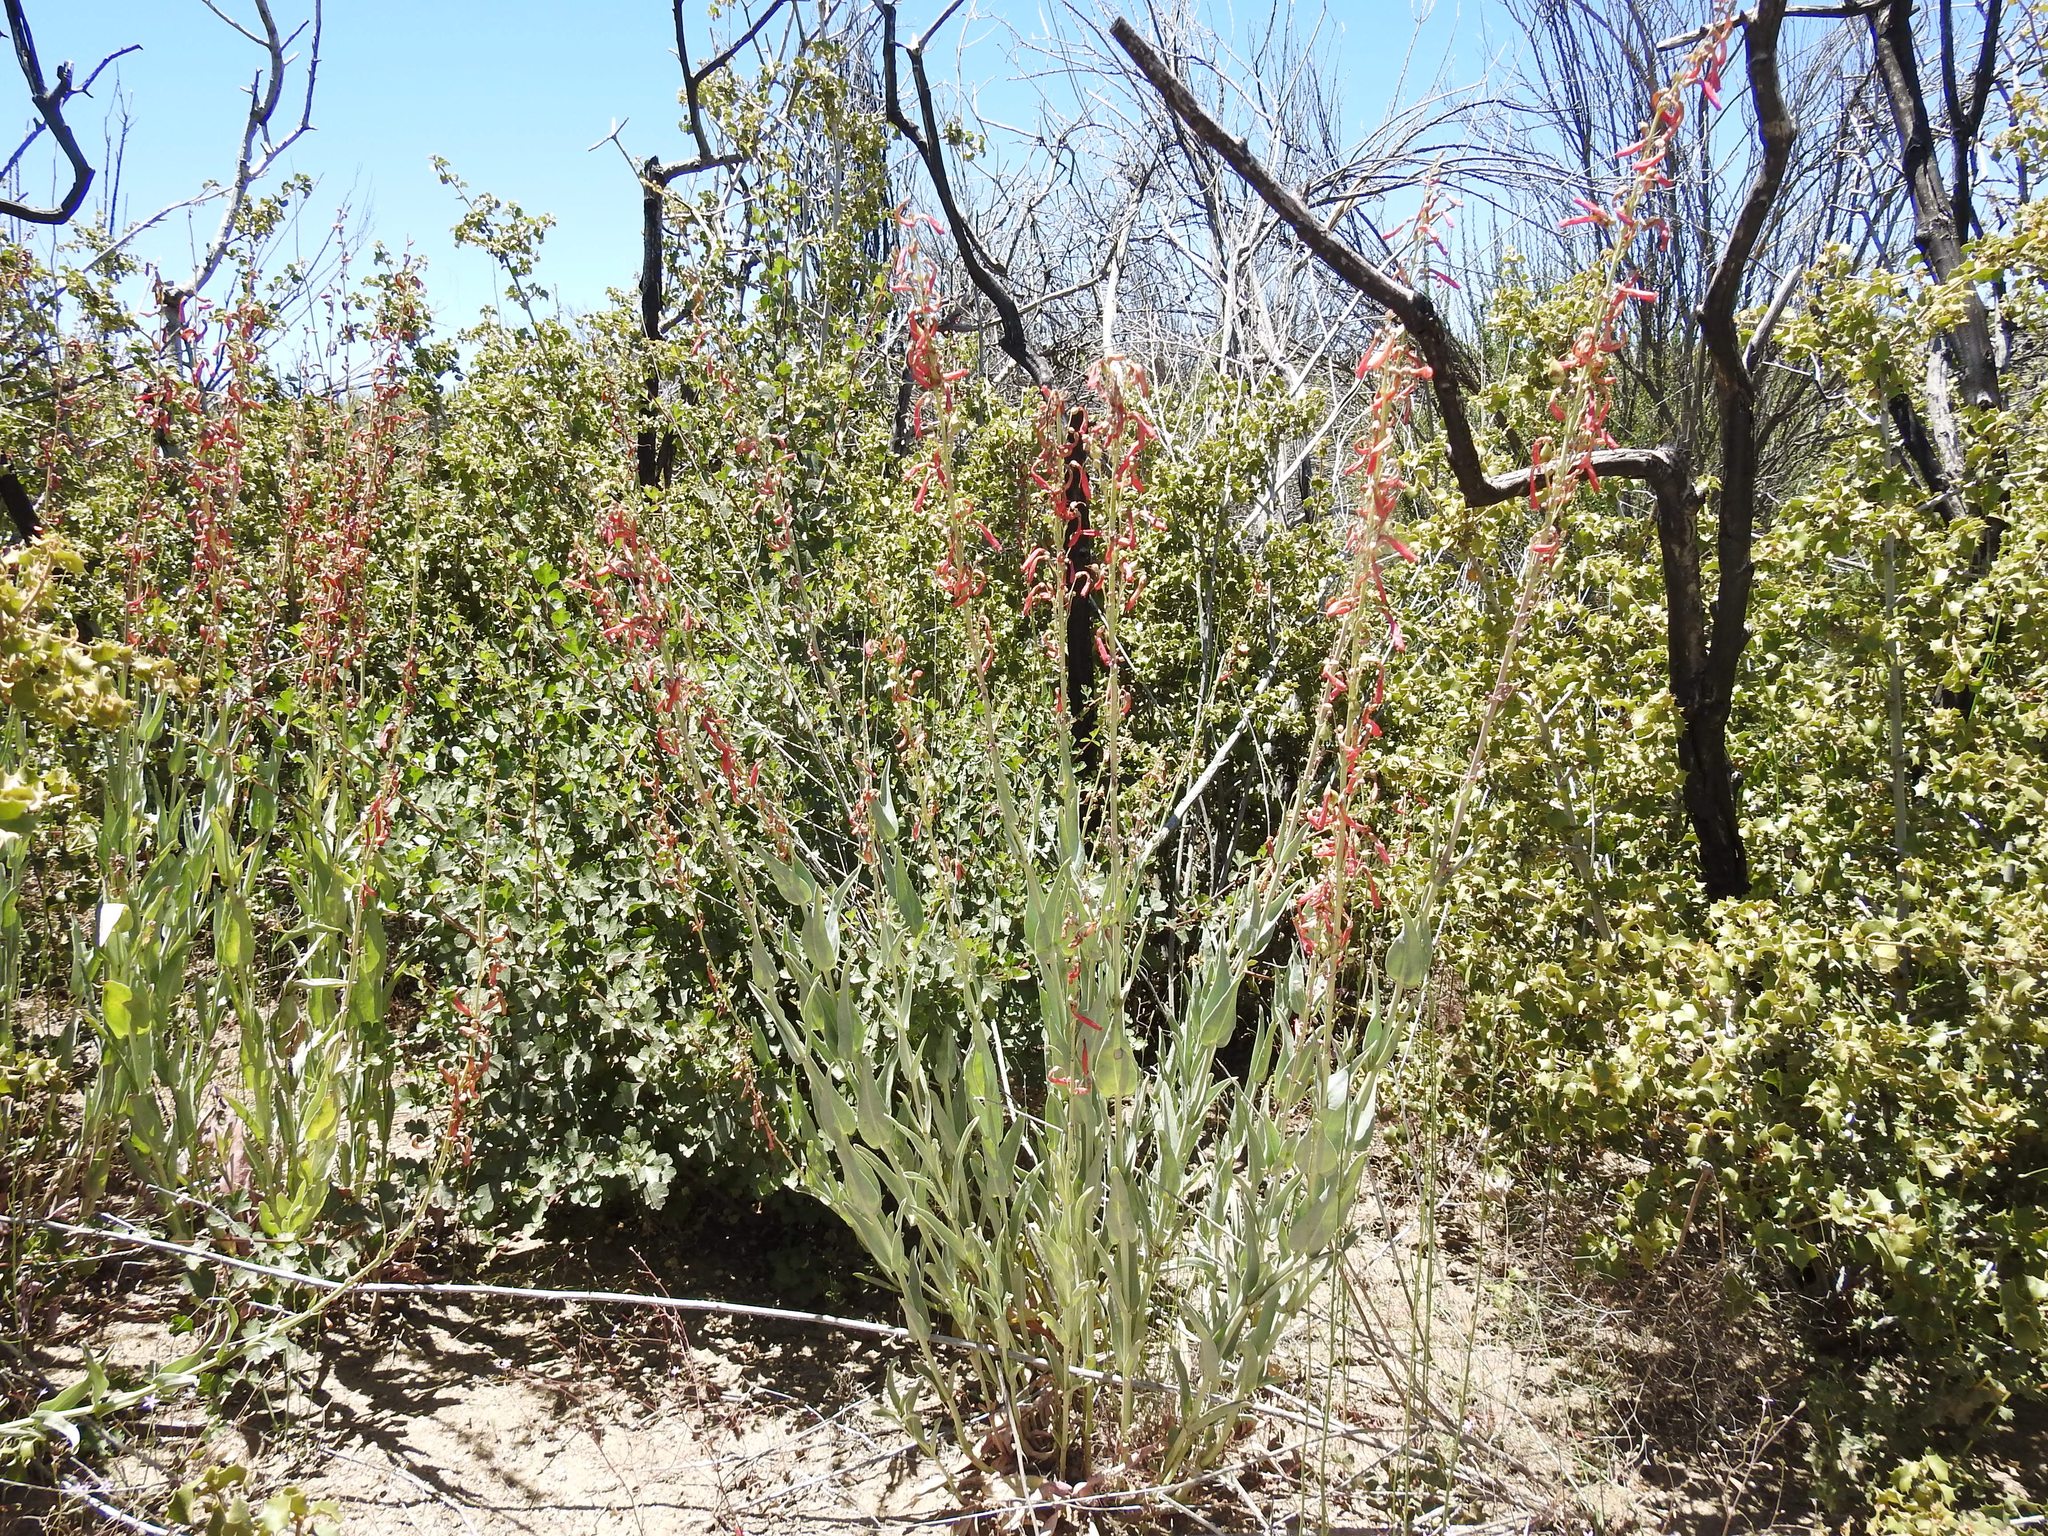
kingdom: Plantae
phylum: Tracheophyta
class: Magnoliopsida
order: Lamiales
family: Plantaginaceae
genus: Penstemon
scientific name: Penstemon centranthifolius
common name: Scarlet bugler
